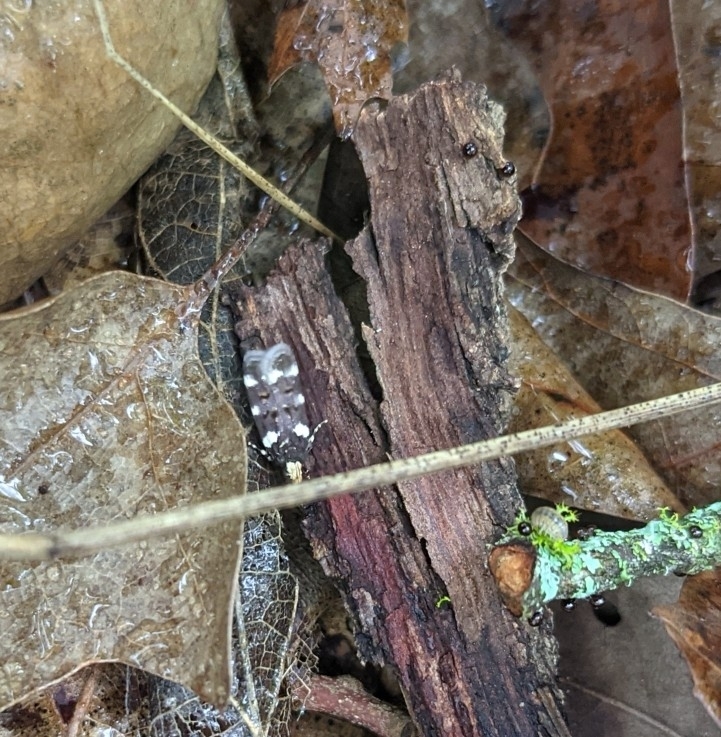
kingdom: Animalia
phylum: Arthropoda
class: Insecta
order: Lepidoptera
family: Gelechiidae
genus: Fascista
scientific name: Fascista cercerisella
